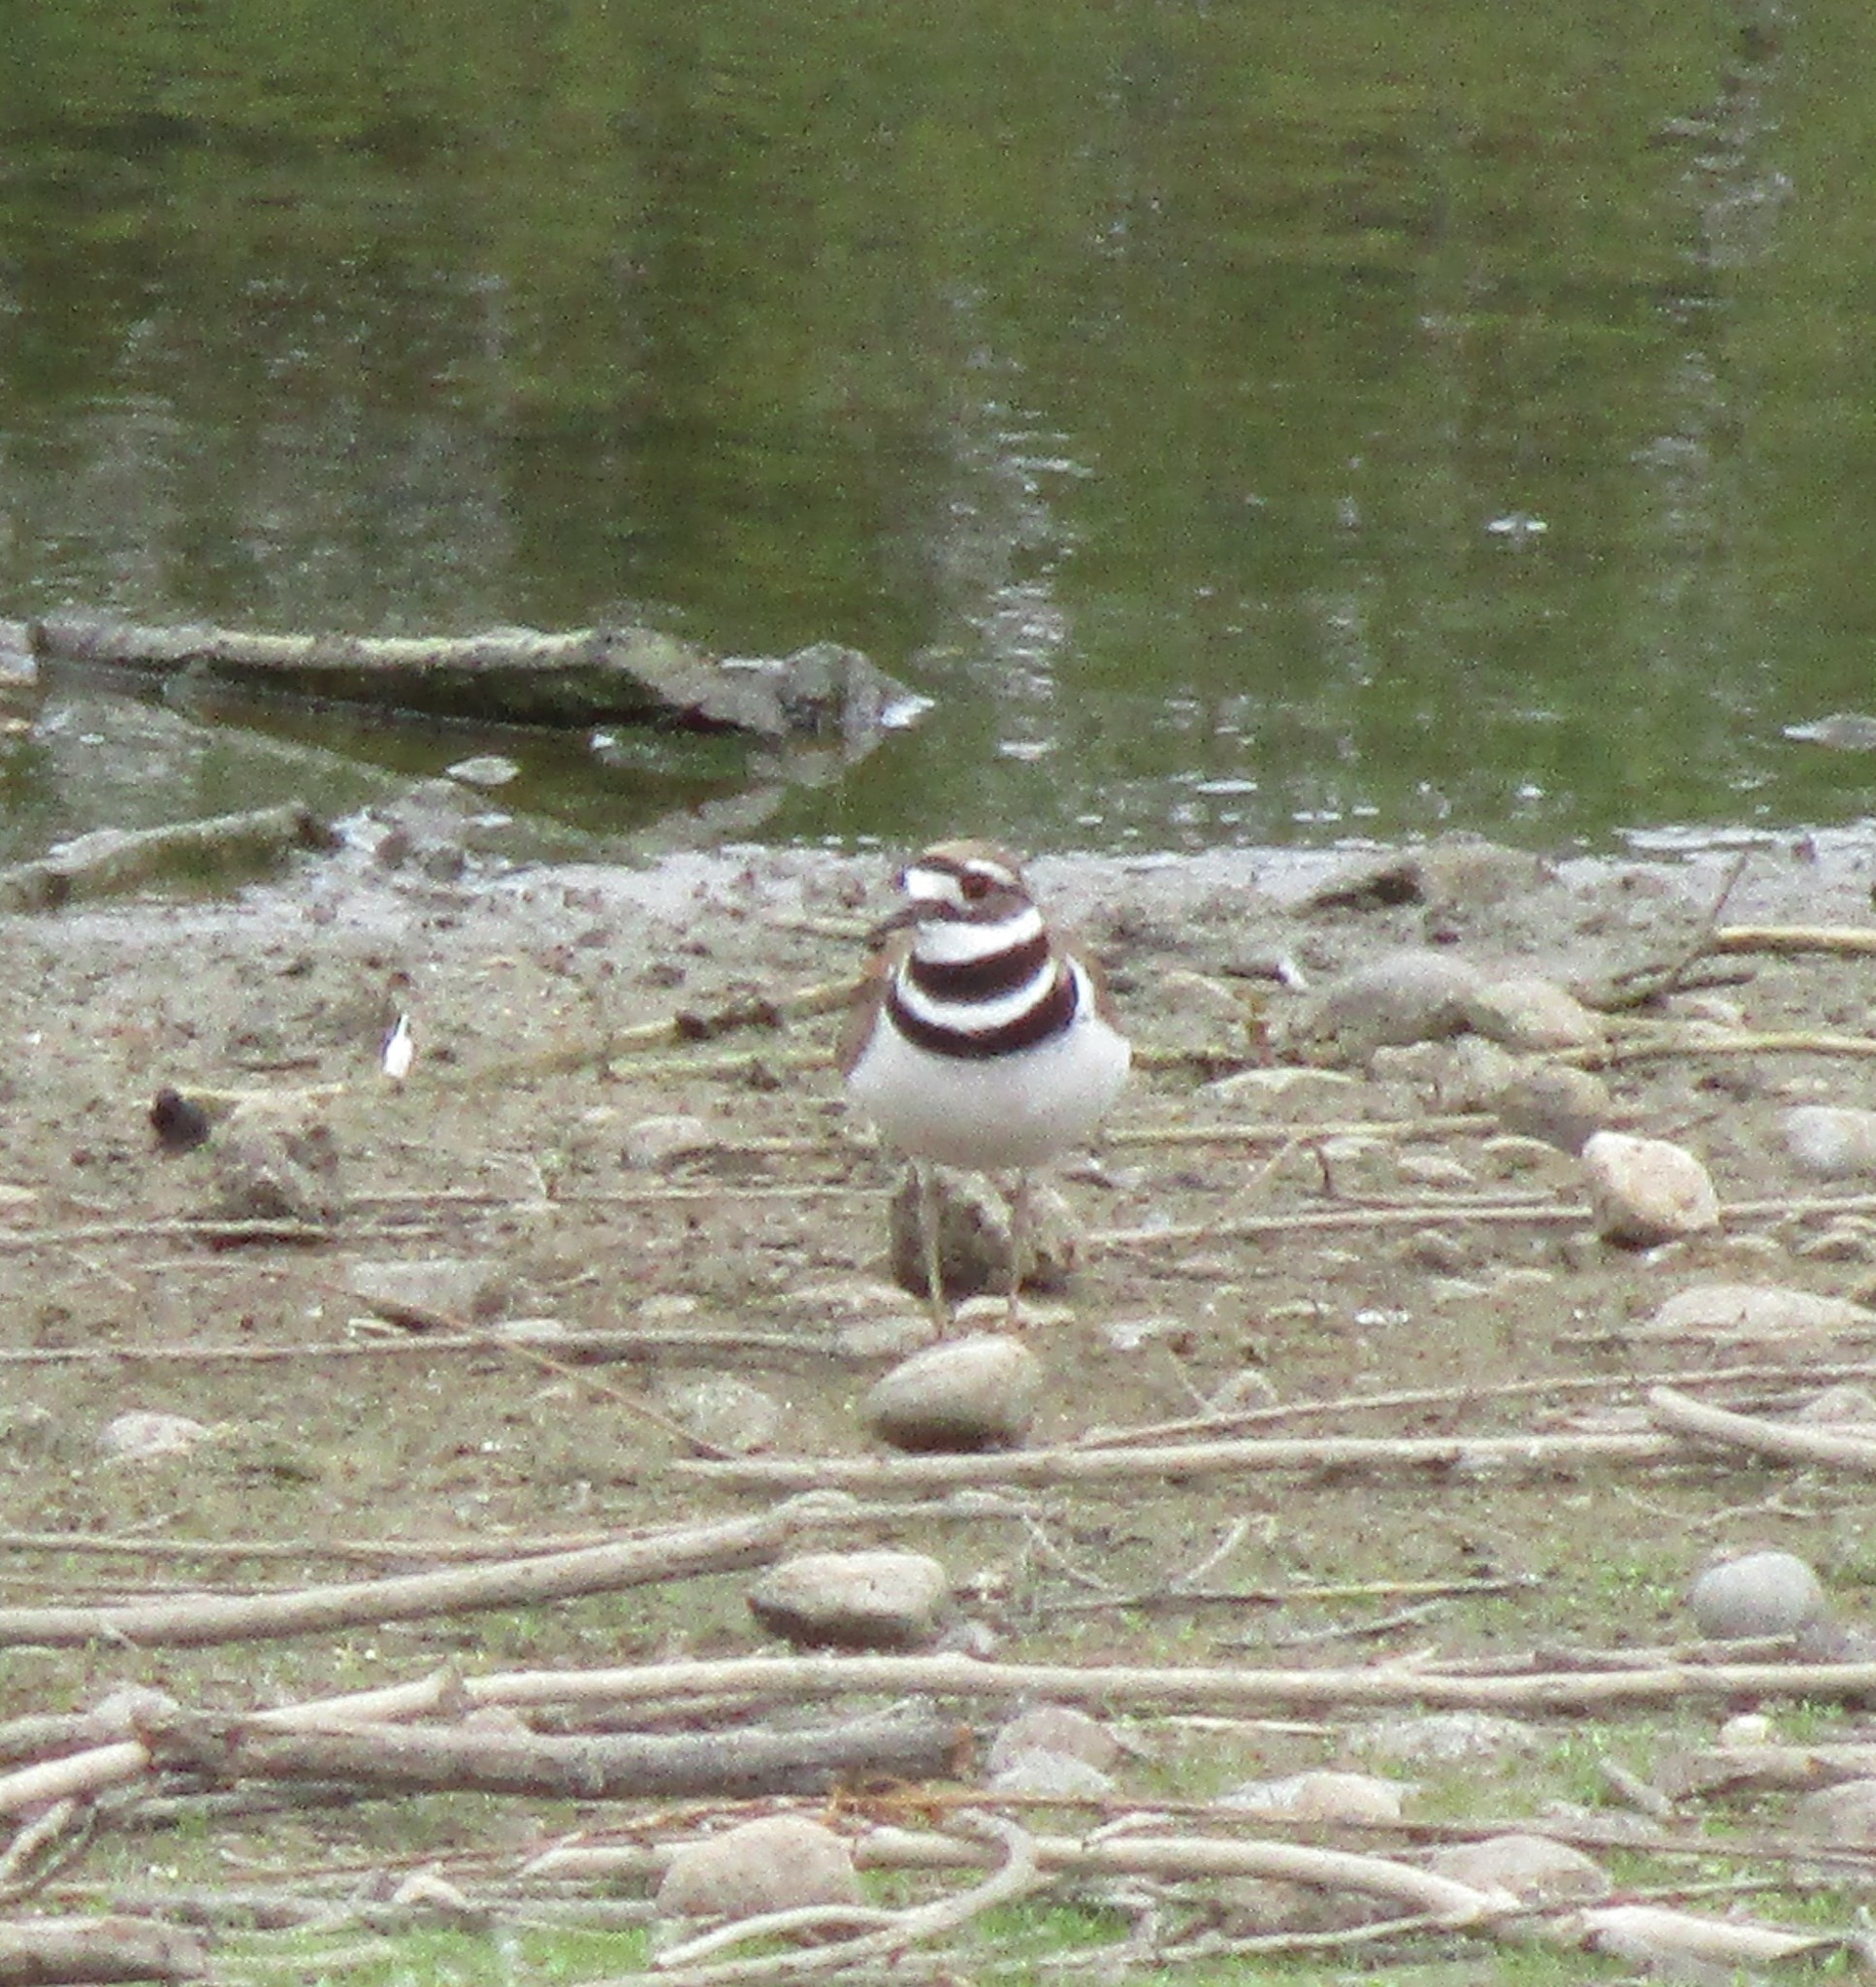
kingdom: Animalia
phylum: Chordata
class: Aves
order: Charadriiformes
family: Charadriidae
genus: Charadrius
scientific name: Charadrius vociferus
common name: Killdeer
